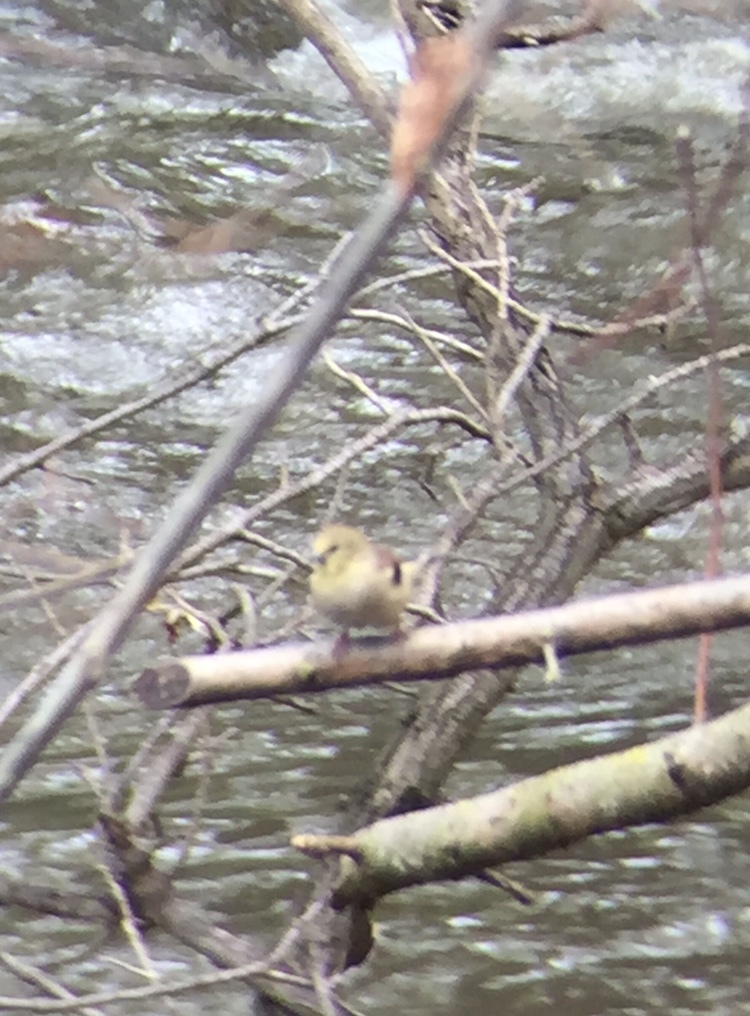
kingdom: Animalia
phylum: Chordata
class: Aves
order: Passeriformes
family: Fringillidae
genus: Spinus
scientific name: Spinus tristis
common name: American goldfinch
